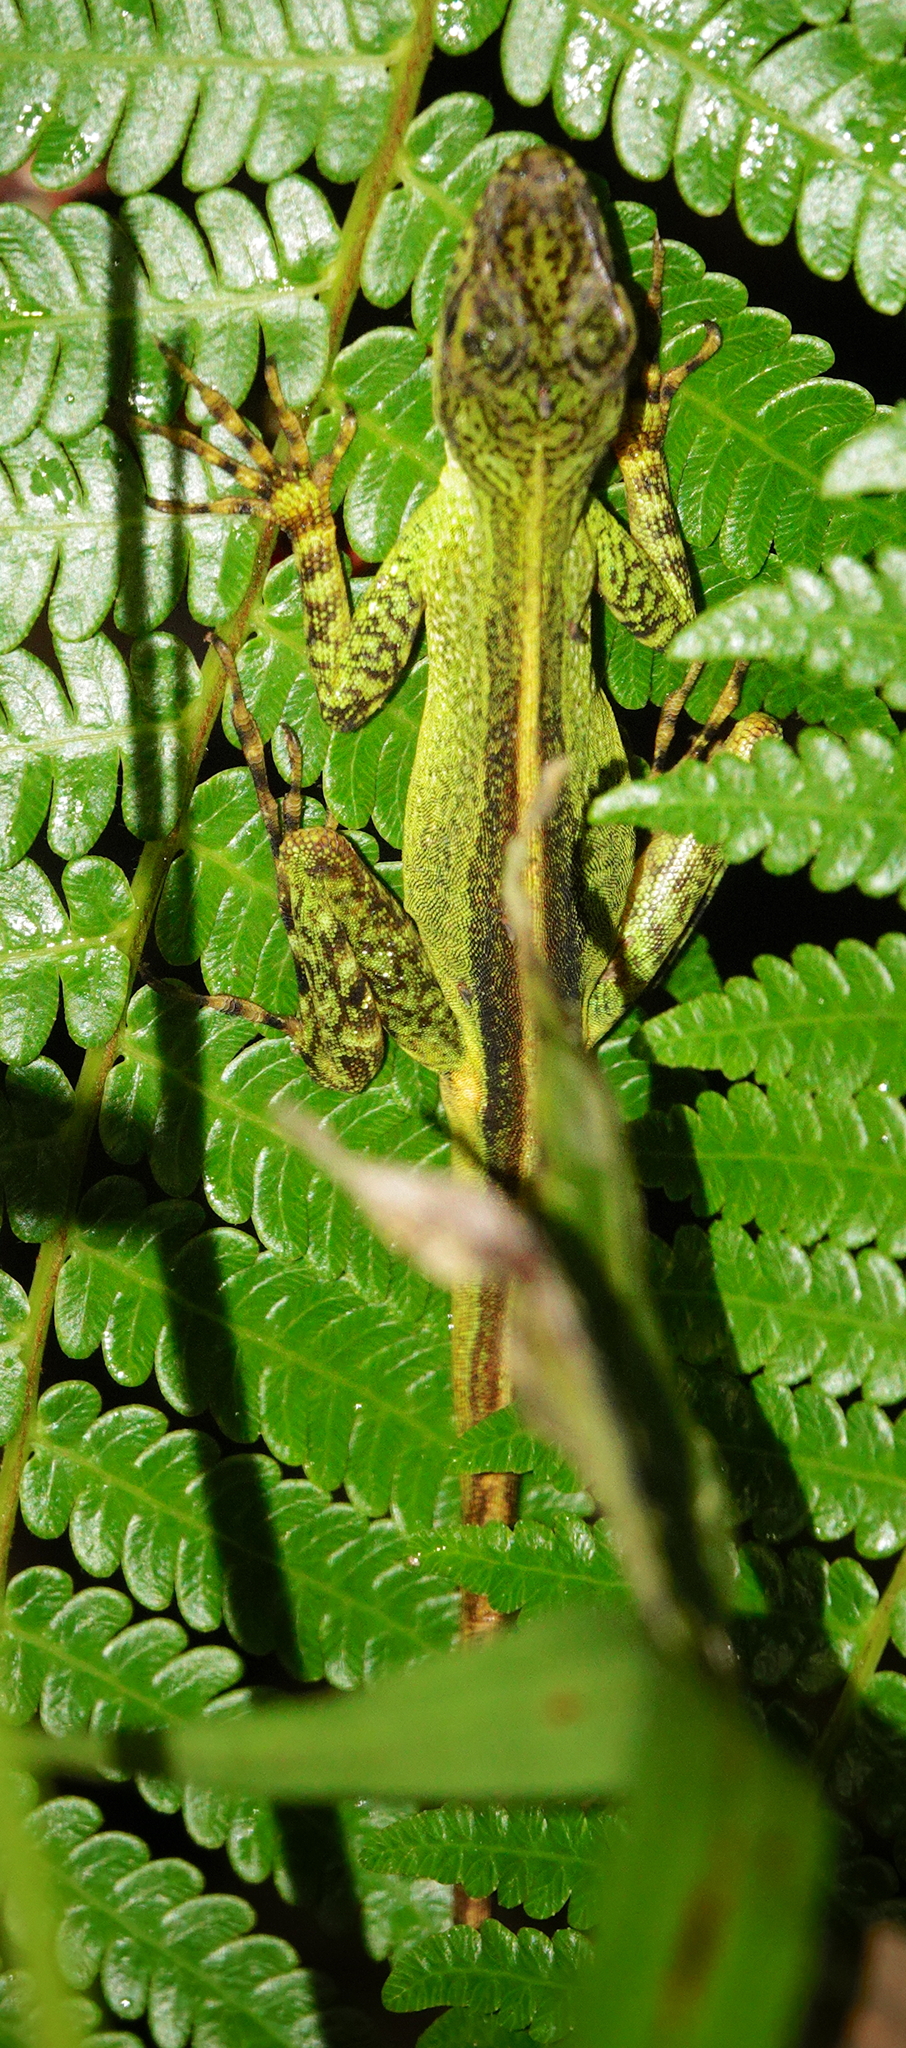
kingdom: Animalia
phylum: Chordata
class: Squamata
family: Dactyloidae
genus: Anolis
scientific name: Anolis dracula
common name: Dracula anole
